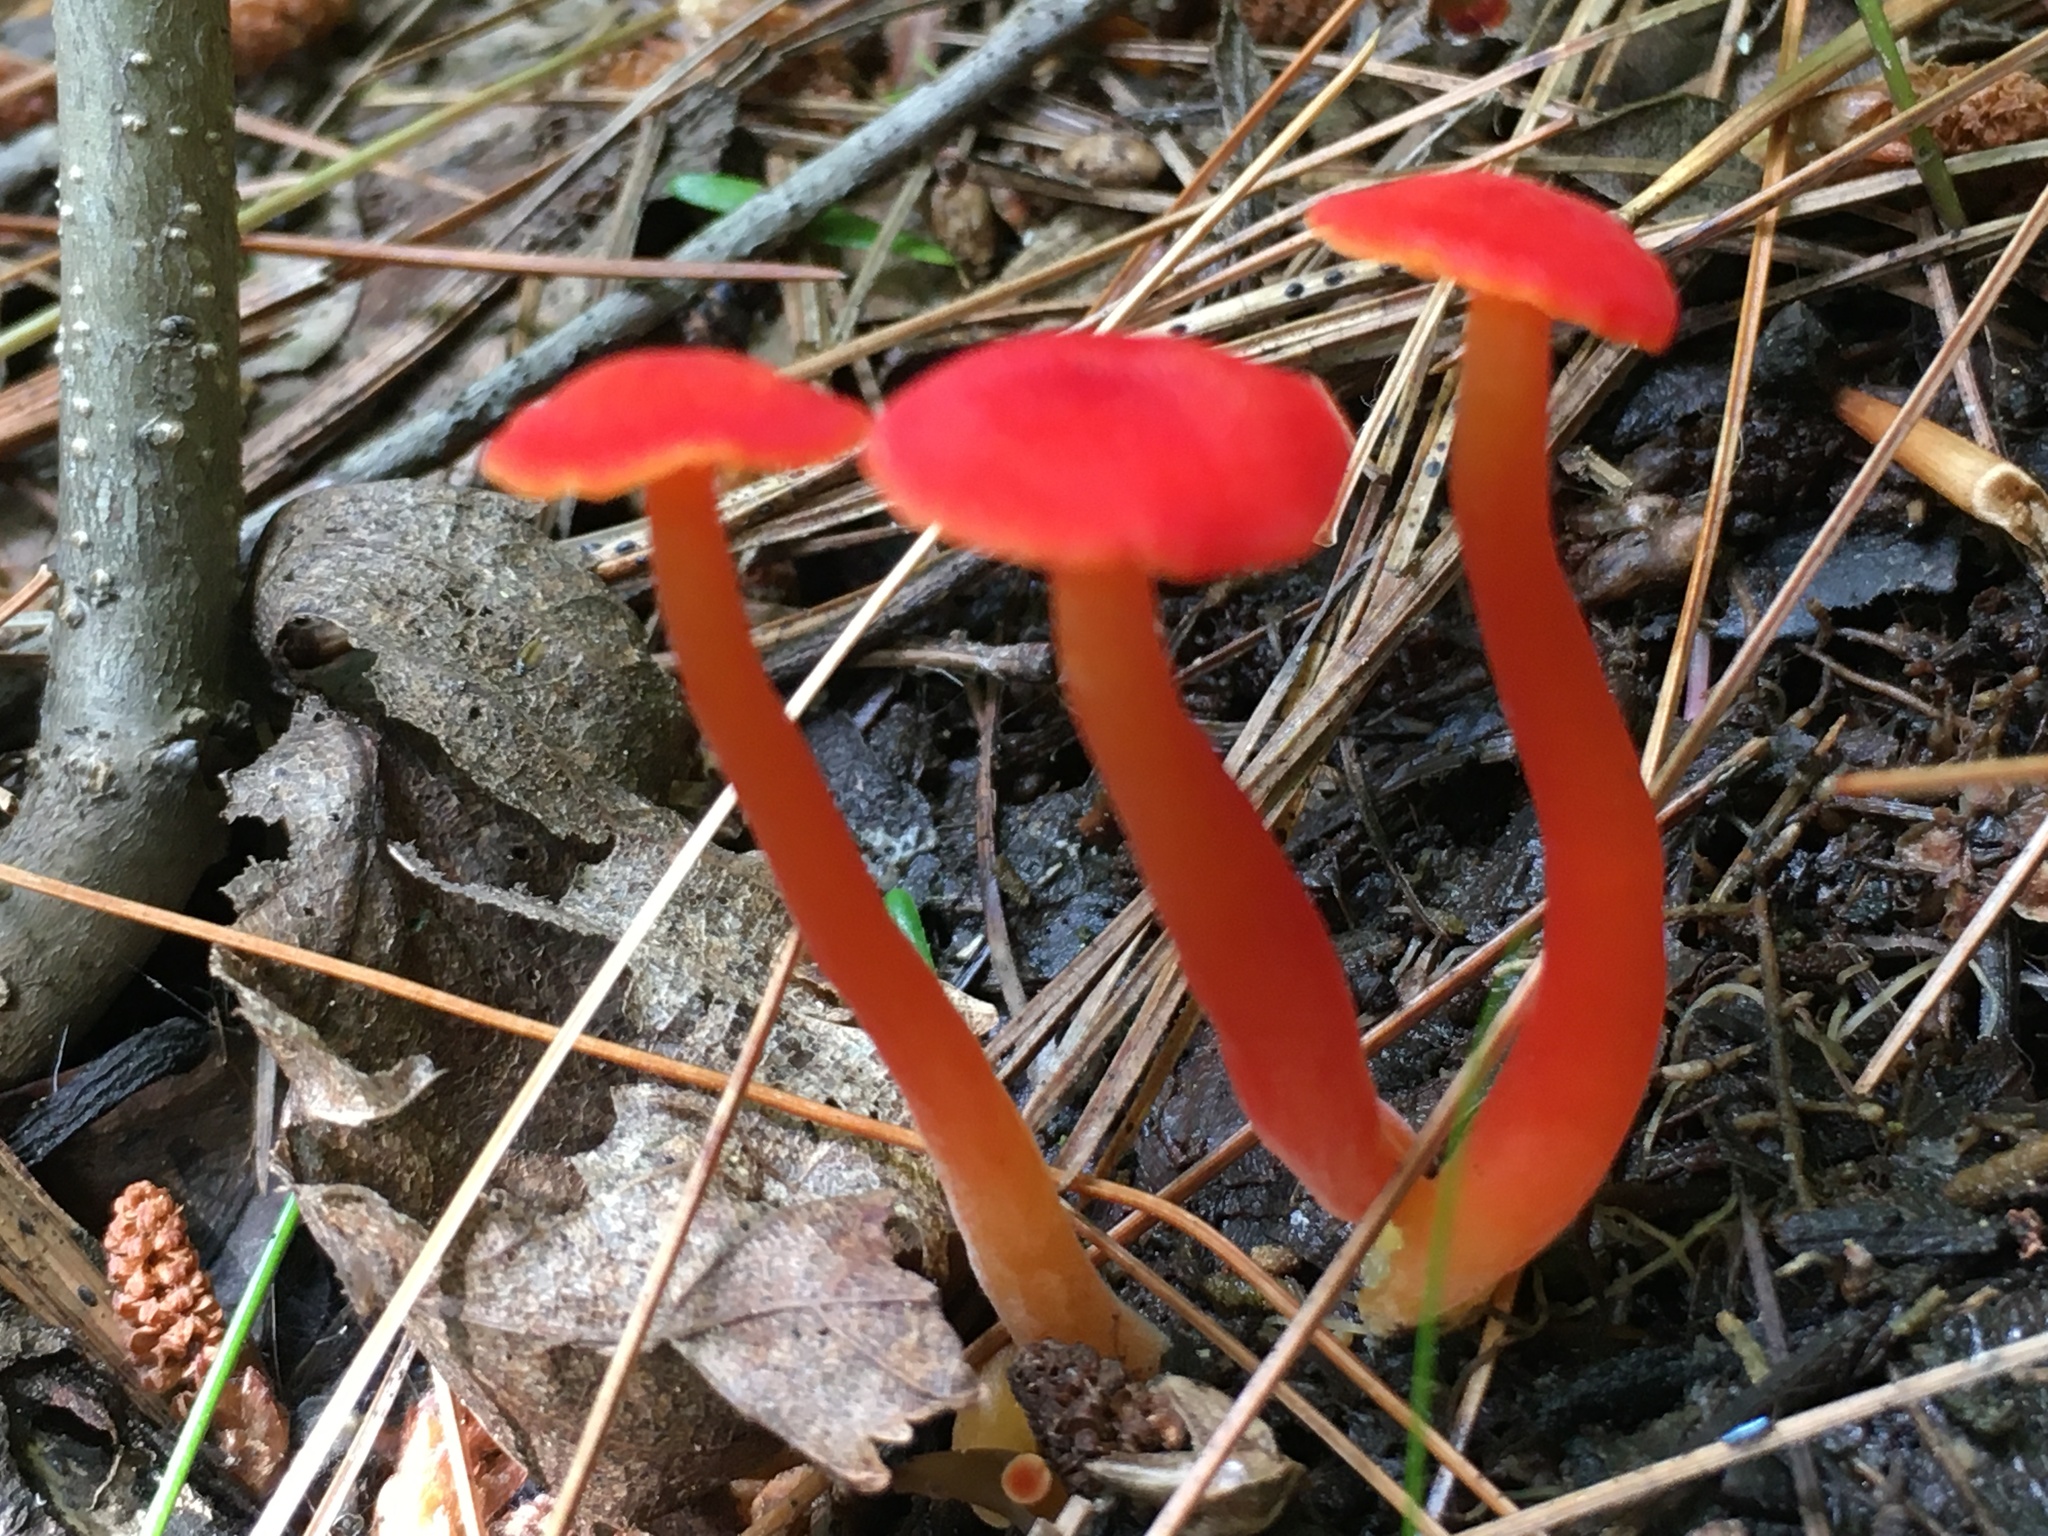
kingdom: Fungi
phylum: Basidiomycota
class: Agaricomycetes
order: Agaricales
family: Hygrophoraceae
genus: Hygrocybe
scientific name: Hygrocybe miniata
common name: Vermilion waxcap
